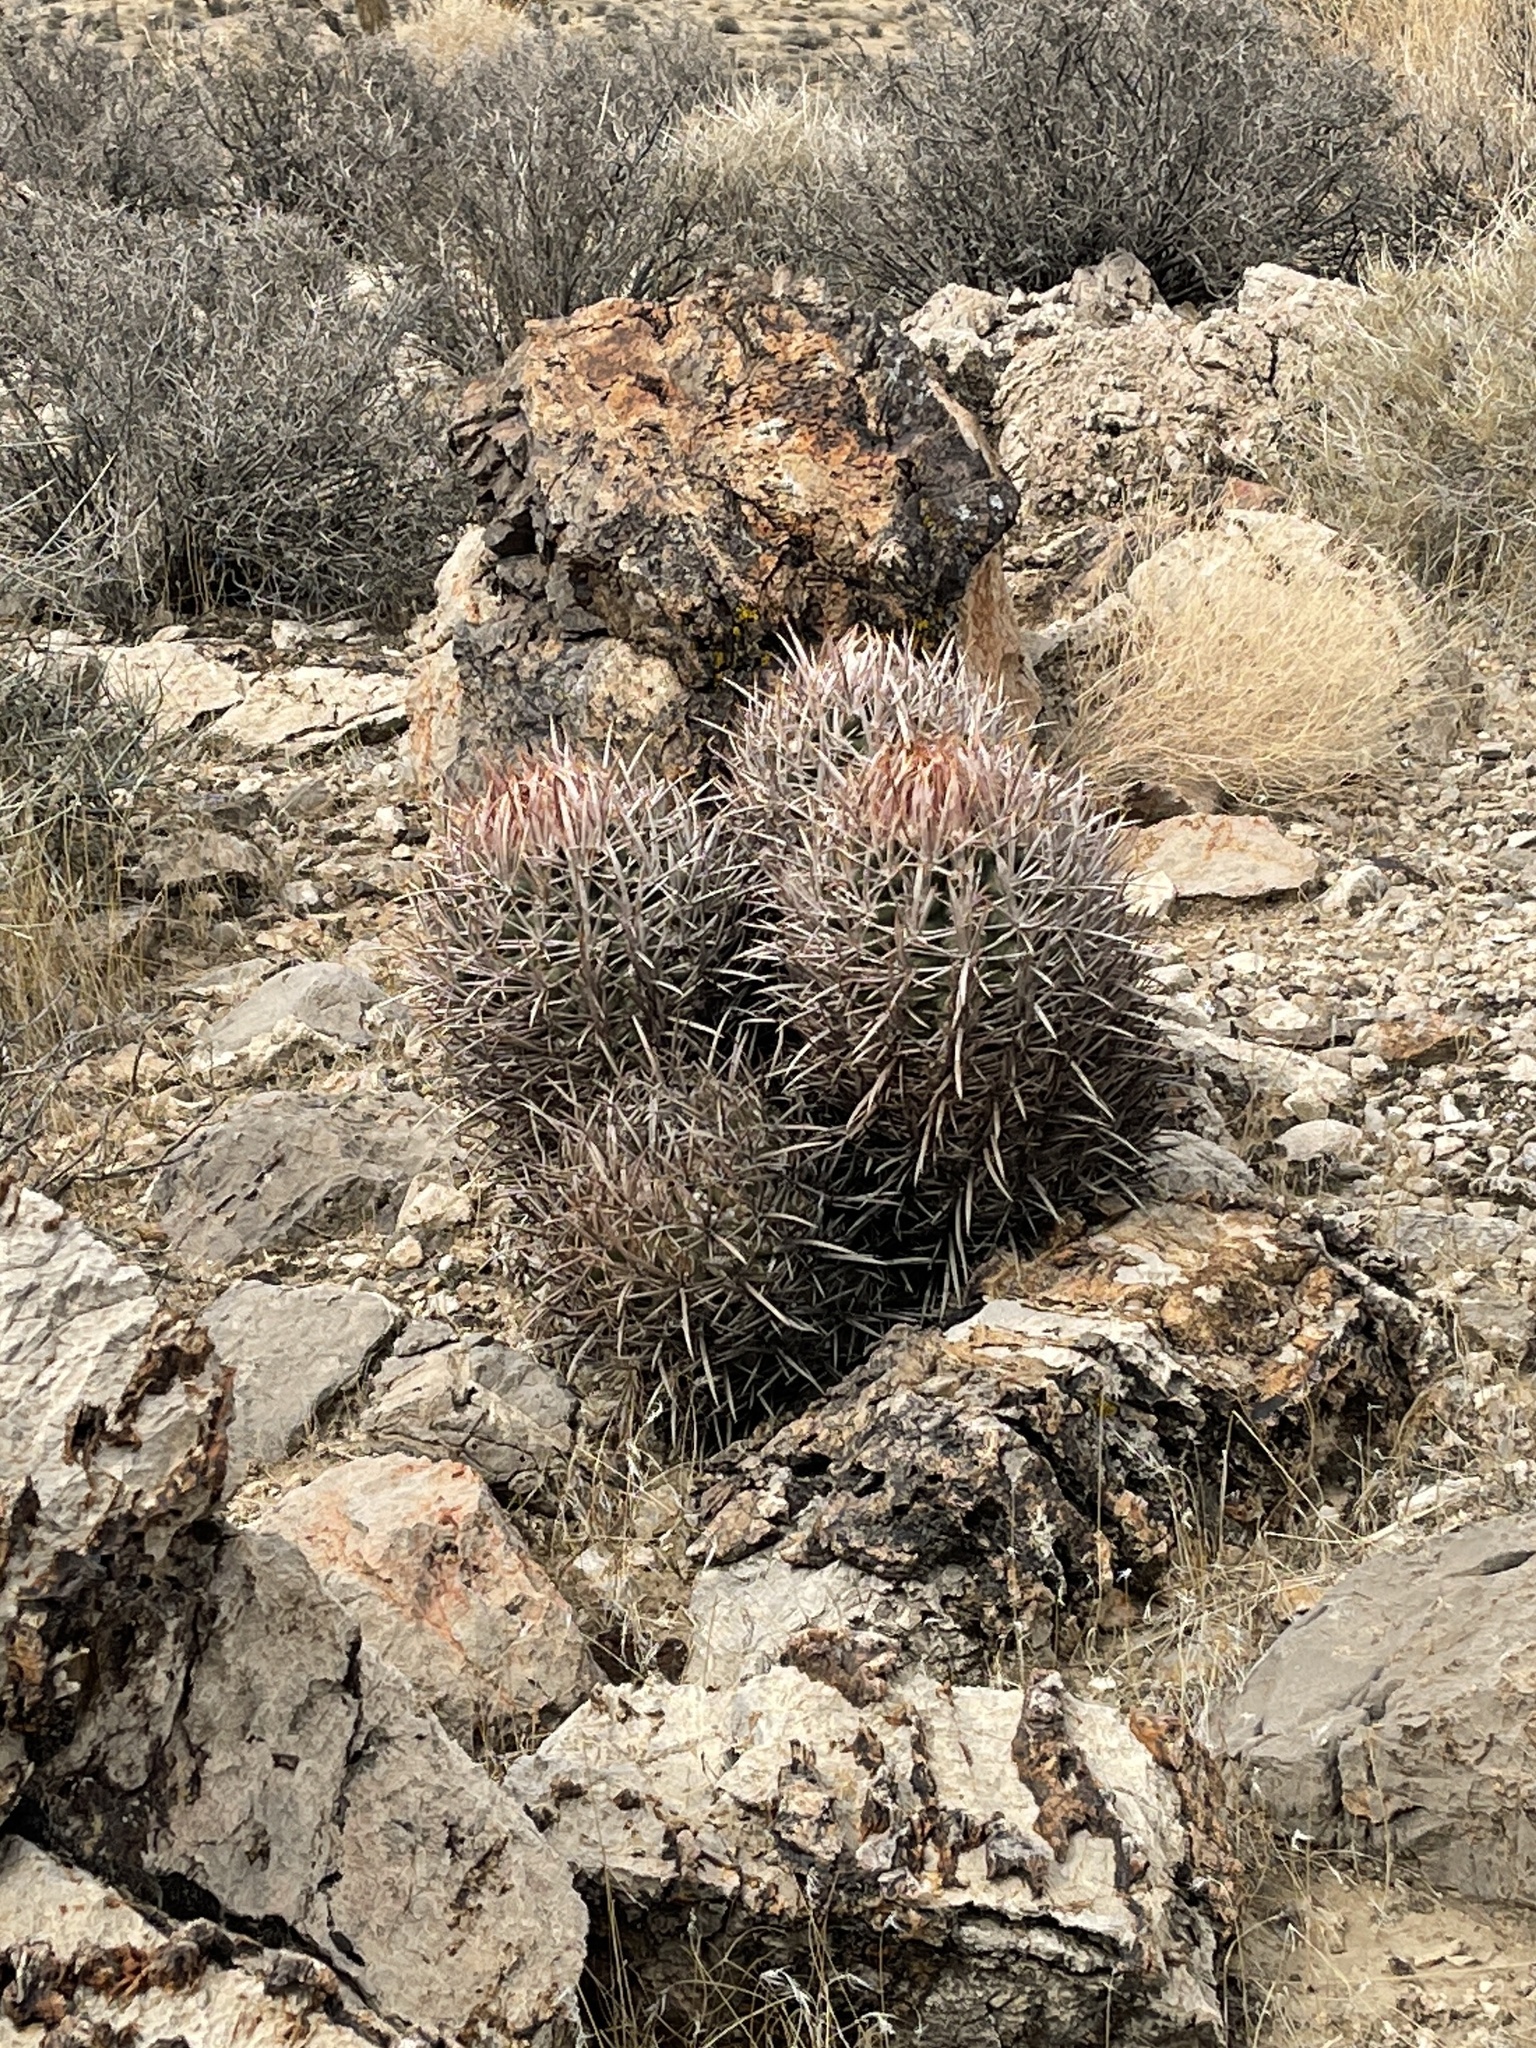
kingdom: Plantae
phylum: Tracheophyta
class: Magnoliopsida
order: Caryophyllales
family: Cactaceae
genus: Echinocactus
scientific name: Echinocactus polycephalus
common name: Cottontop cactus
